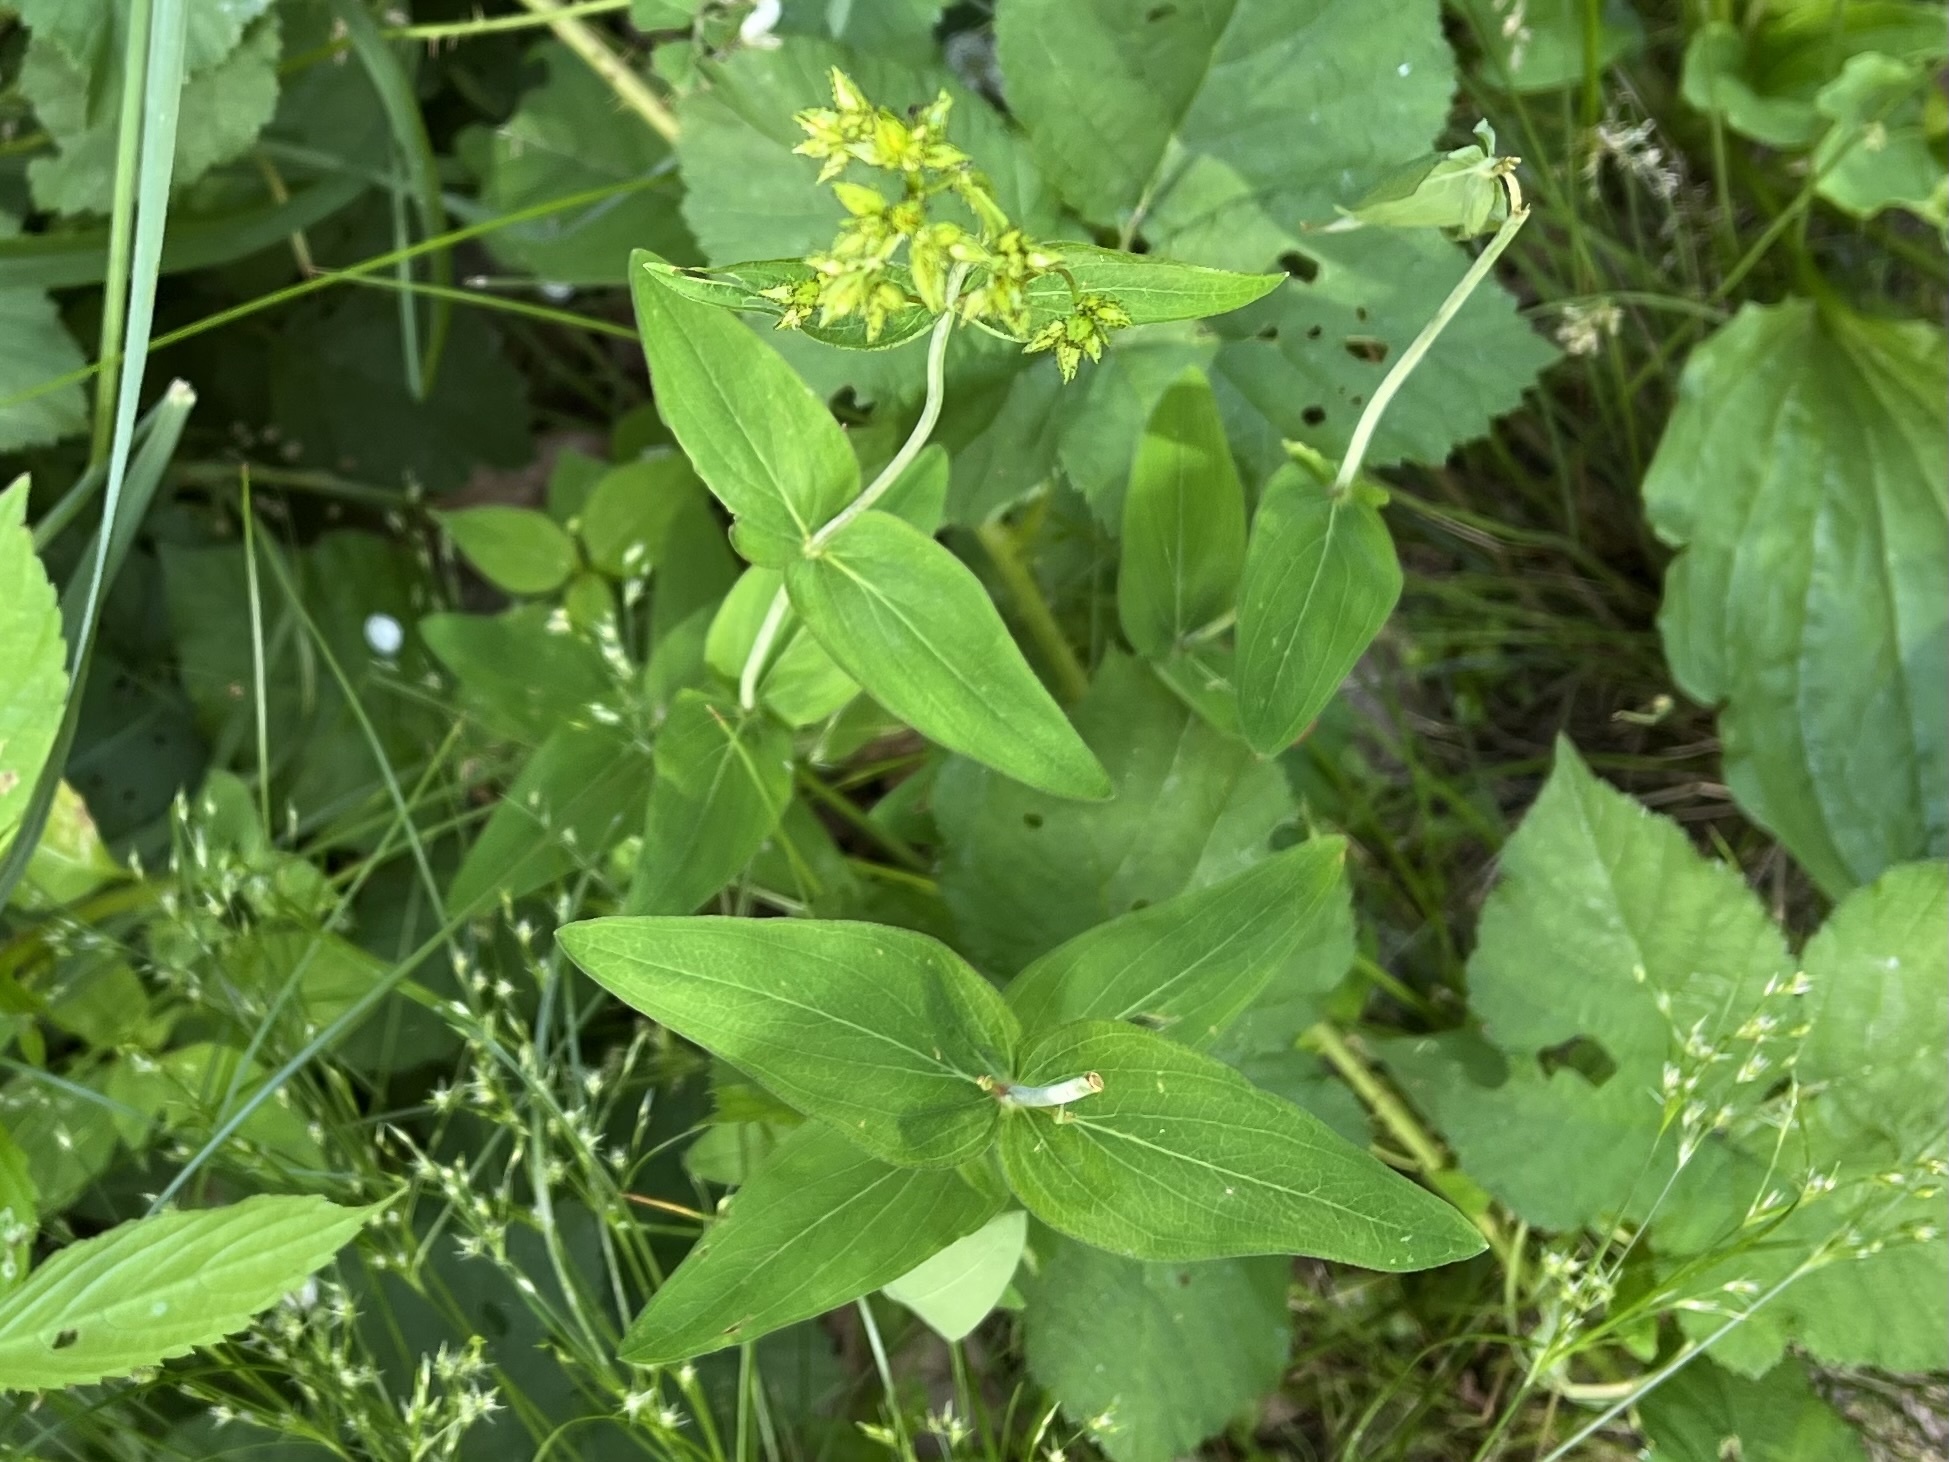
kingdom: Plantae
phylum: Tracheophyta
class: Magnoliopsida
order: Malpighiales
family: Hypericaceae
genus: Hypericum
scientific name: Hypericum montanum
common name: Pale st. john's-wort
